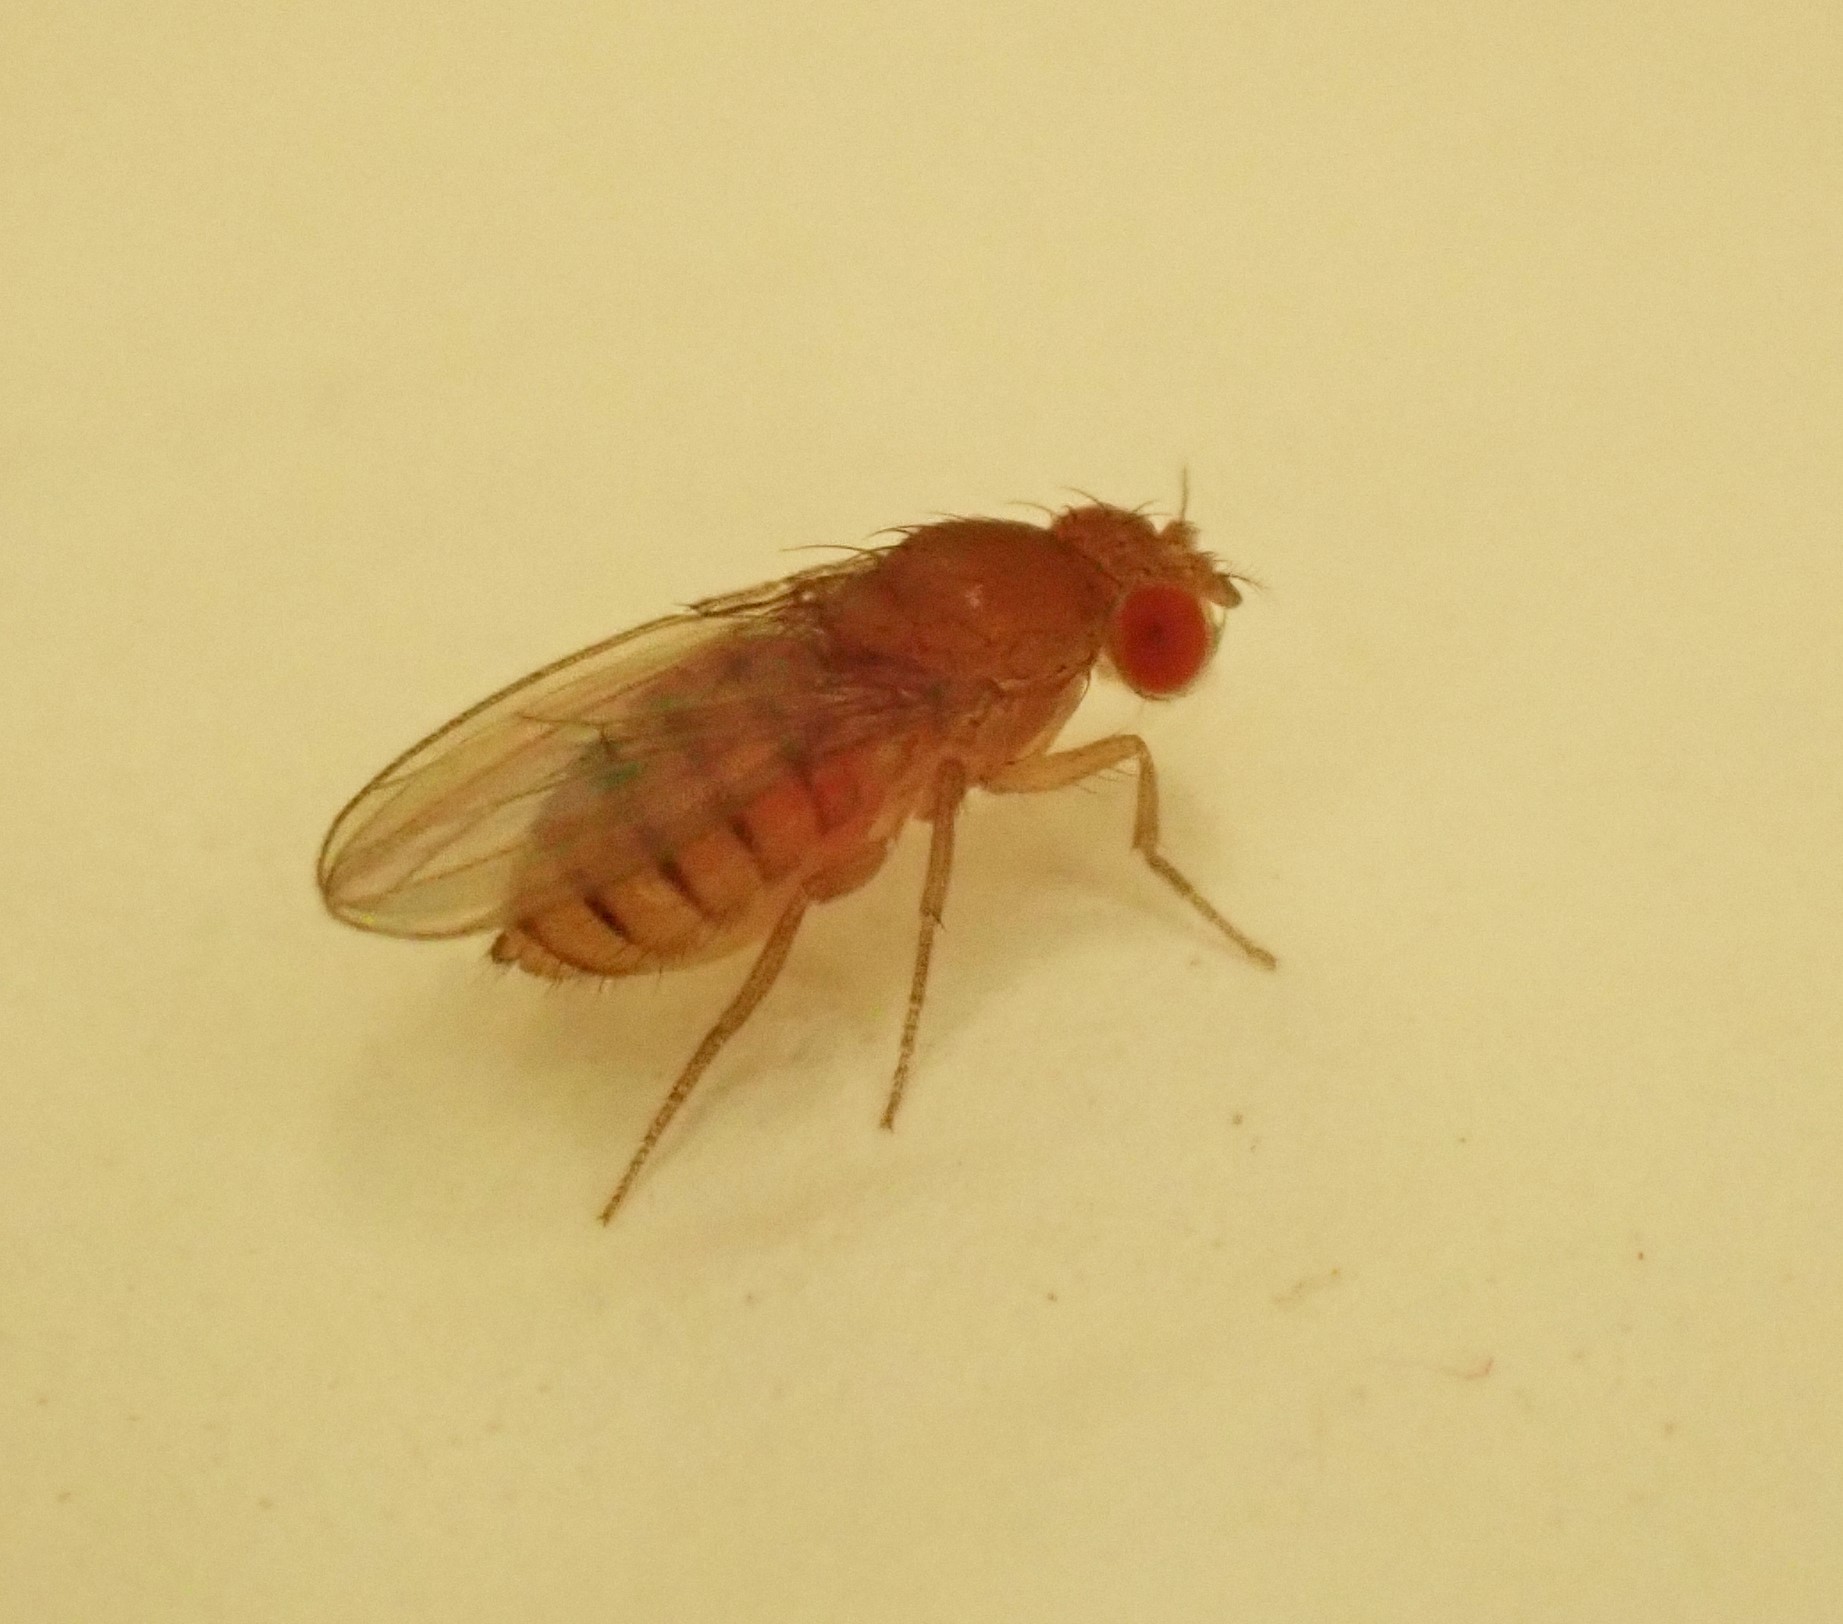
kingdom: Animalia
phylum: Arthropoda
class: Insecta
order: Diptera
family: Drosophilidae
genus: Drosophila
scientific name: Drosophila
